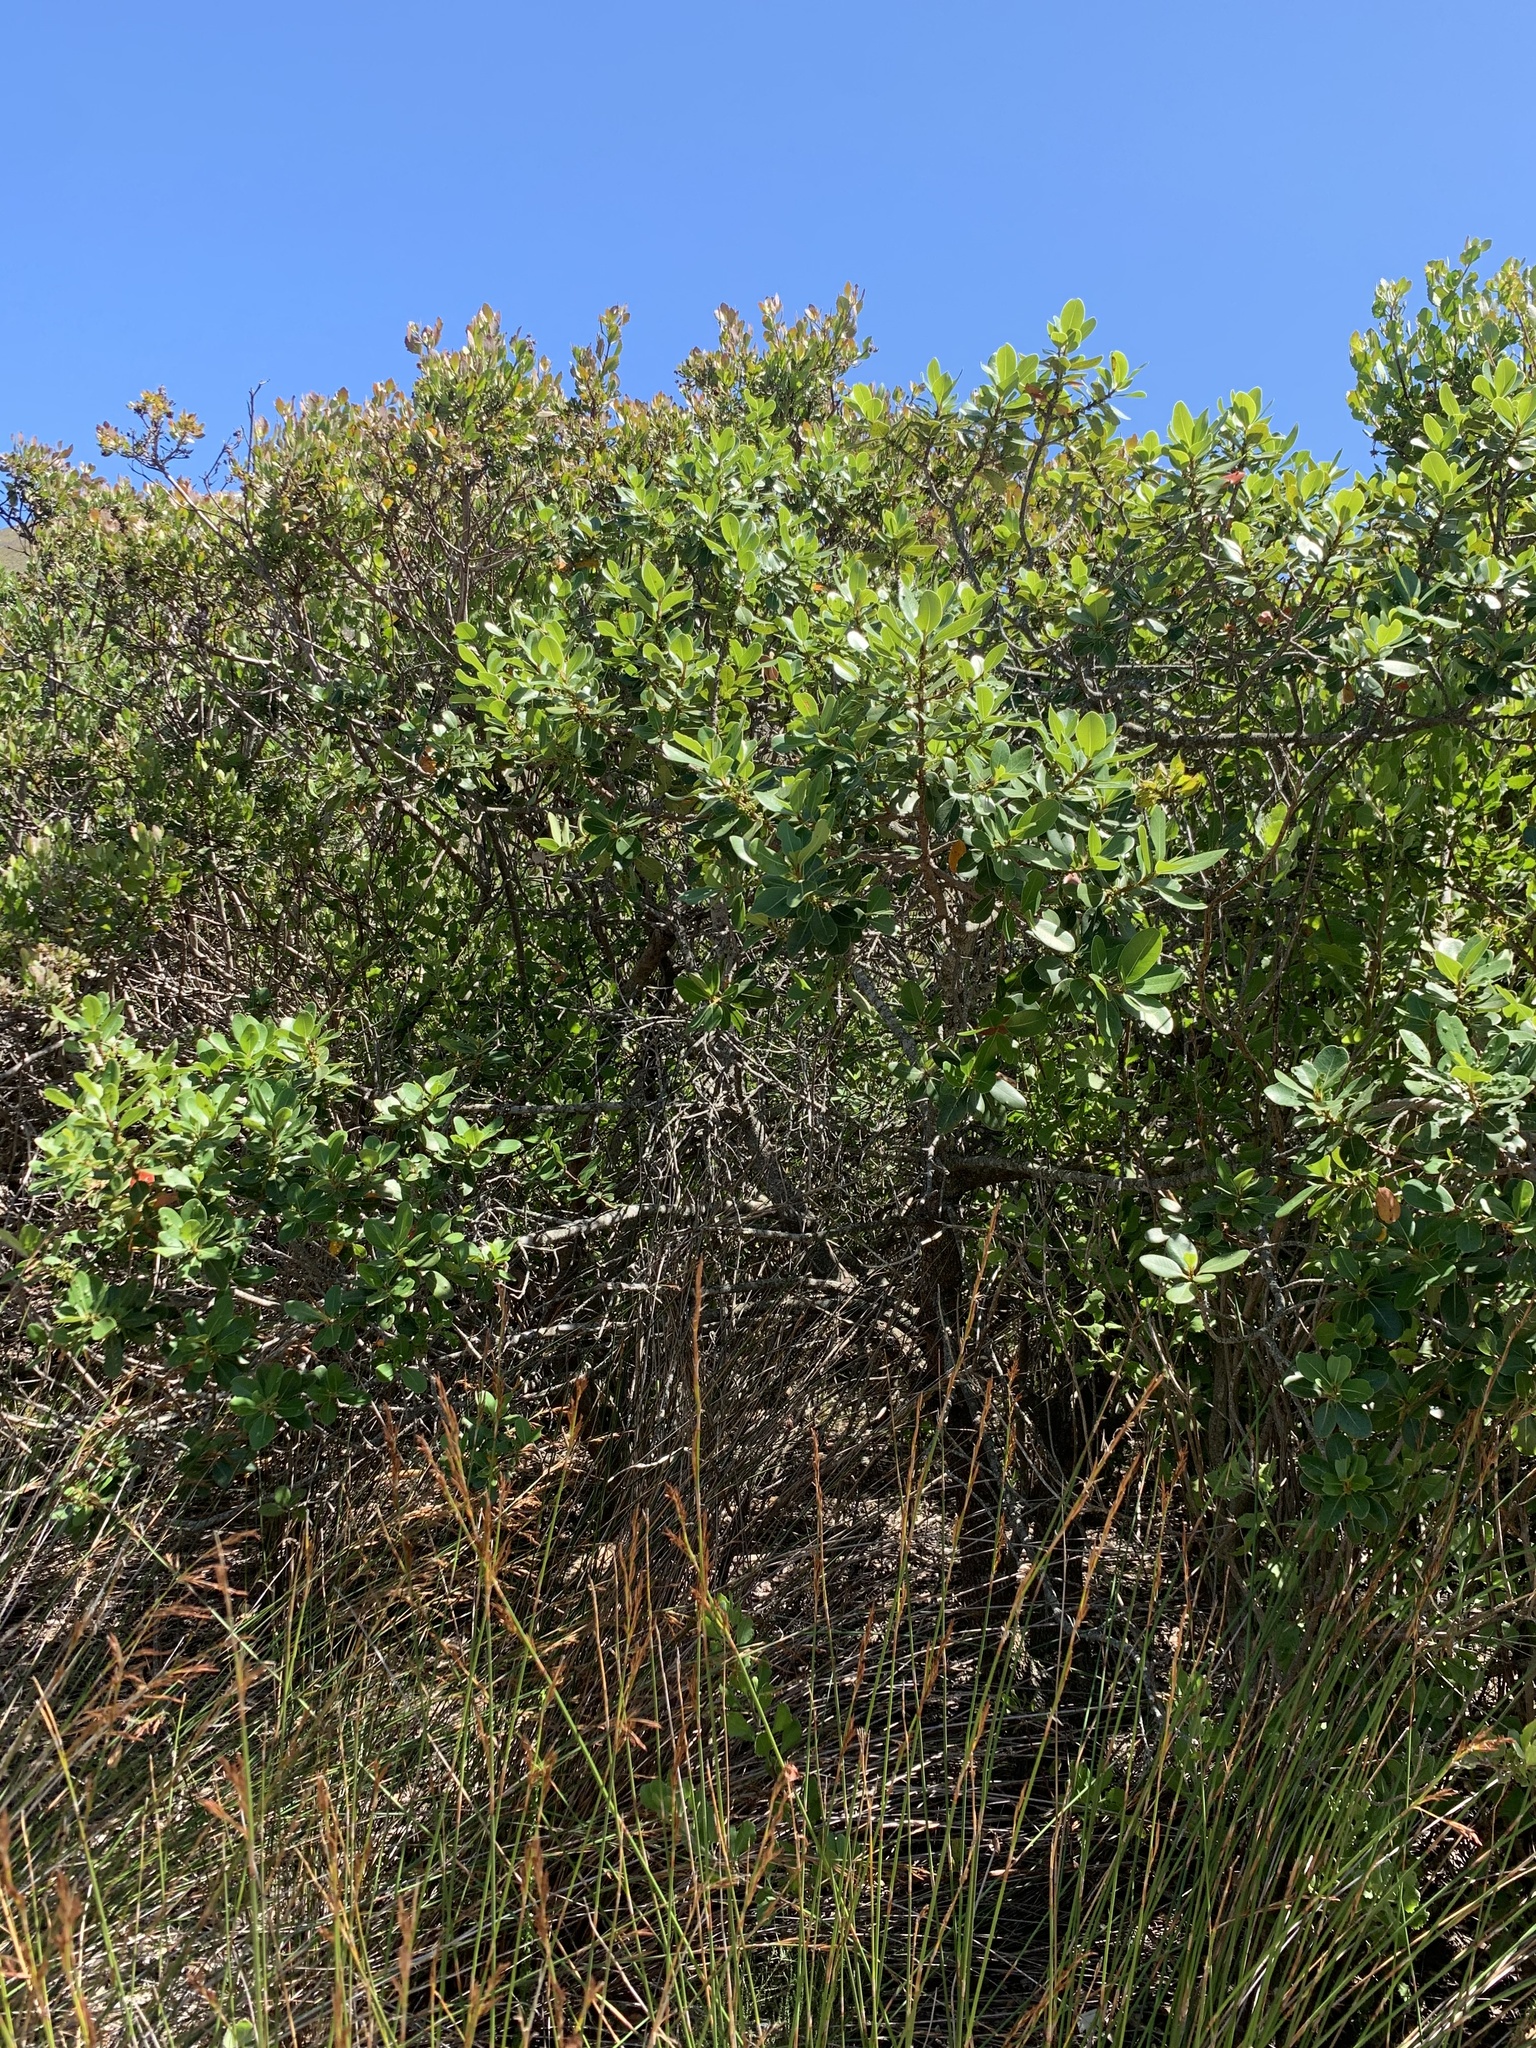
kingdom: Plantae
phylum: Tracheophyta
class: Magnoliopsida
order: Ericales
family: Sapotaceae
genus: Sideroxylon
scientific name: Sideroxylon inerme
